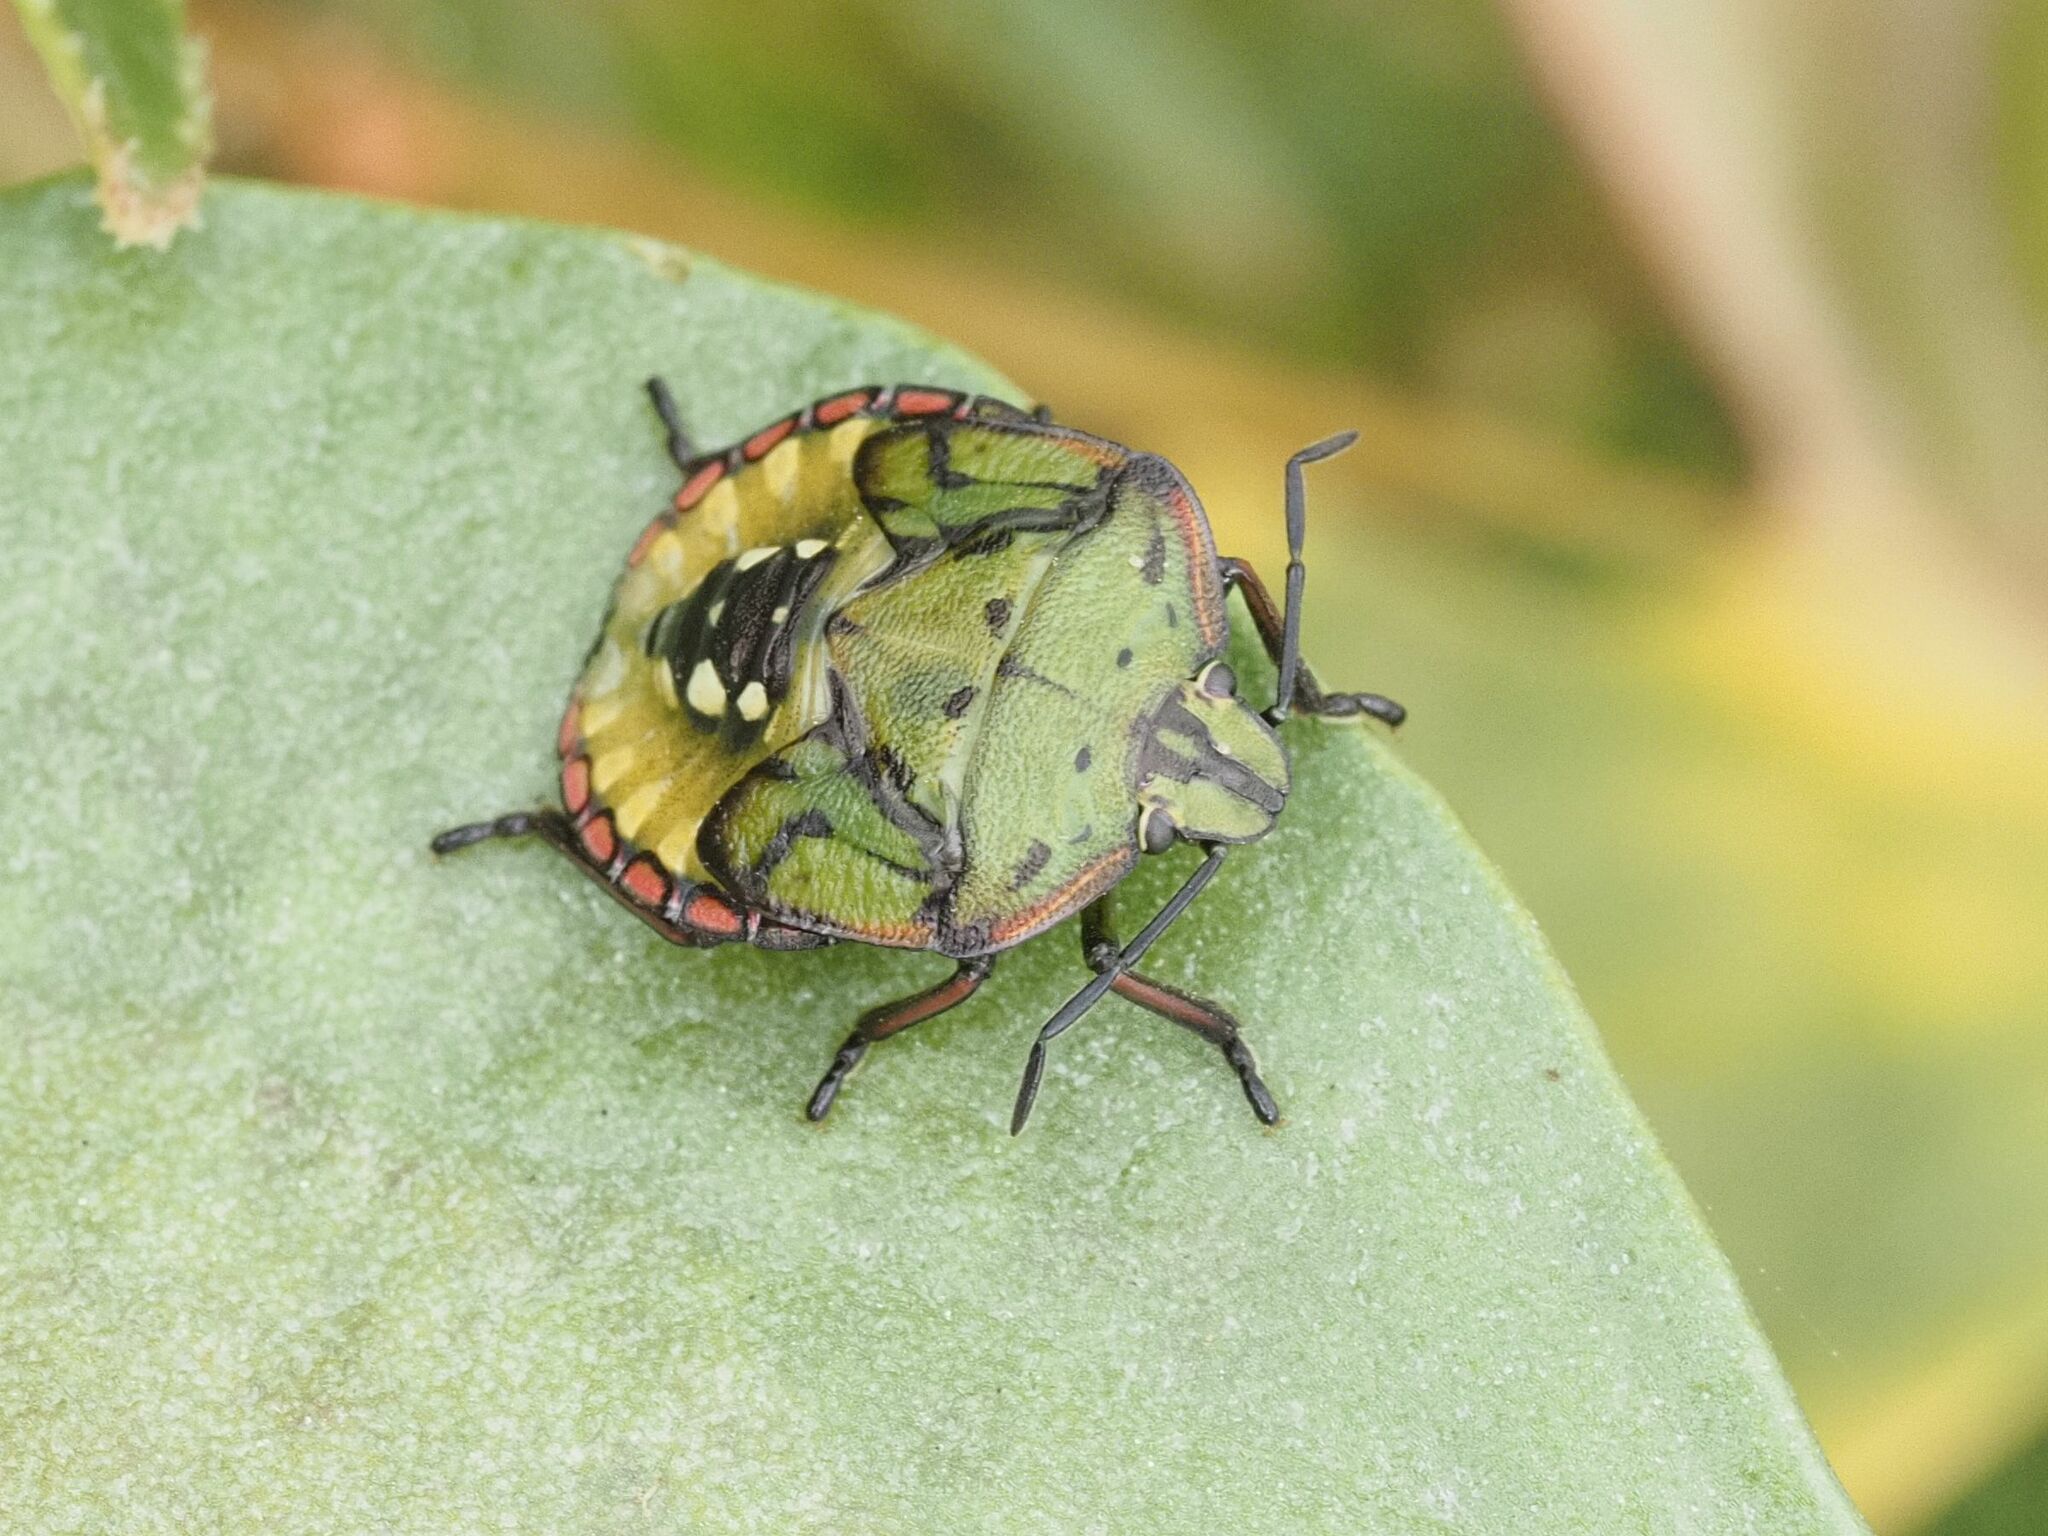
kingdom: Animalia
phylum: Arthropoda
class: Insecta
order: Hemiptera
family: Pentatomidae
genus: Nezara
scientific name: Nezara viridula
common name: Southern green stink bug
